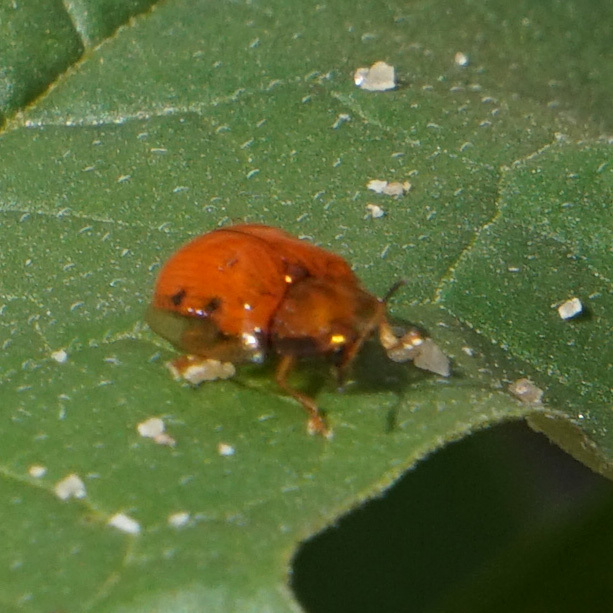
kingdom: Animalia
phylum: Arthropoda
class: Insecta
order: Coleoptera
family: Chrysomelidae
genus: Charidotella
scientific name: Charidotella sexpunctata
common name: Golden tortoise beetle
